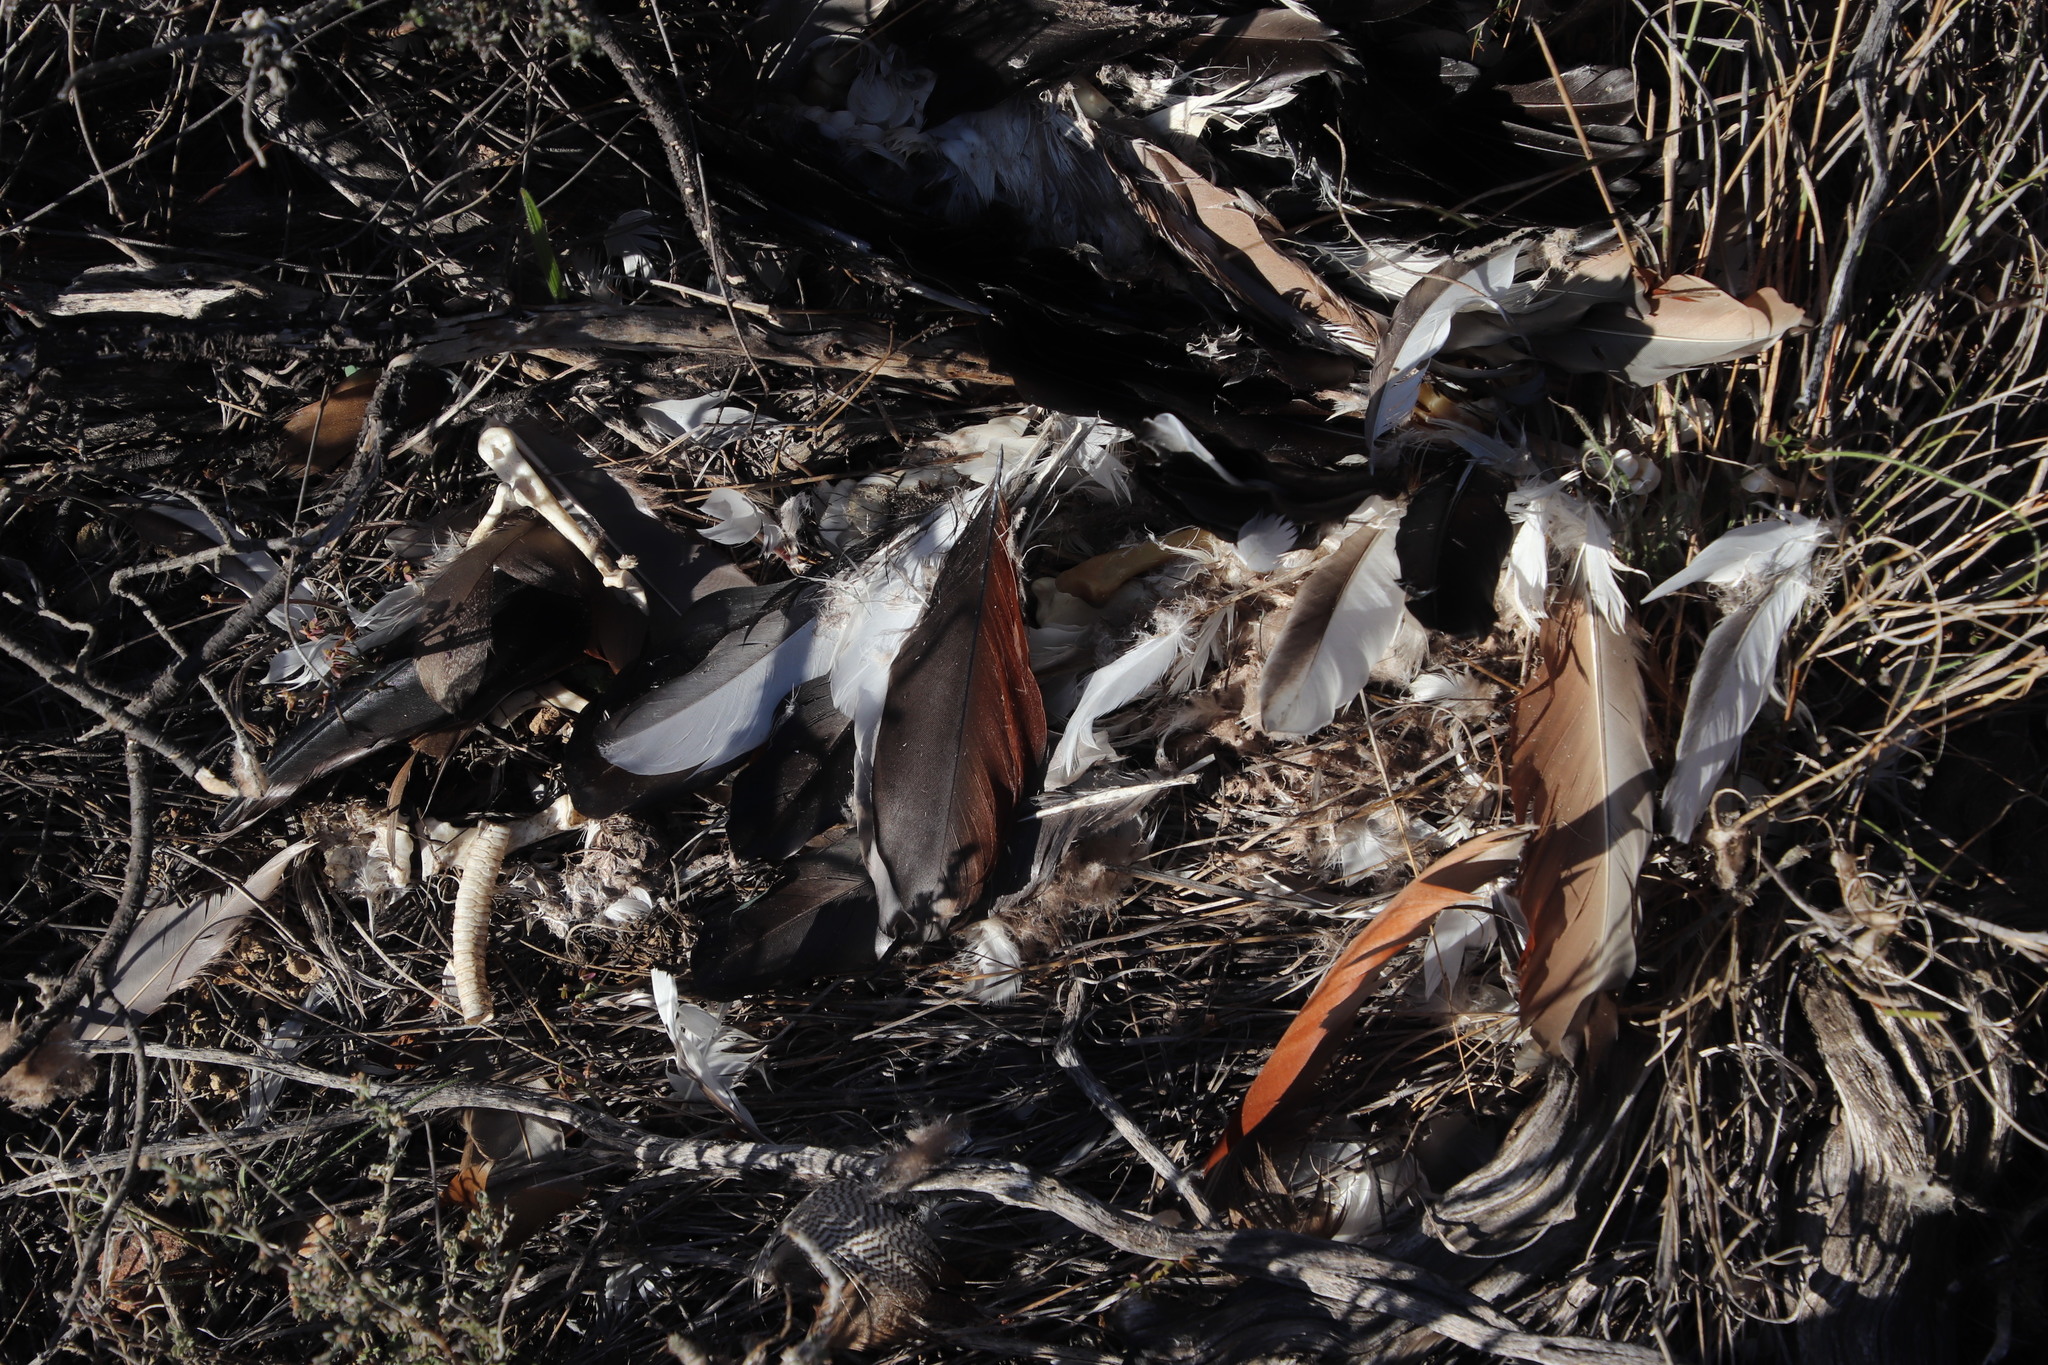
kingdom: Animalia
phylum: Chordata
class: Aves
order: Anseriformes
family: Anatidae
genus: Alopochen
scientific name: Alopochen aegyptiaca
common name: Egyptian goose
